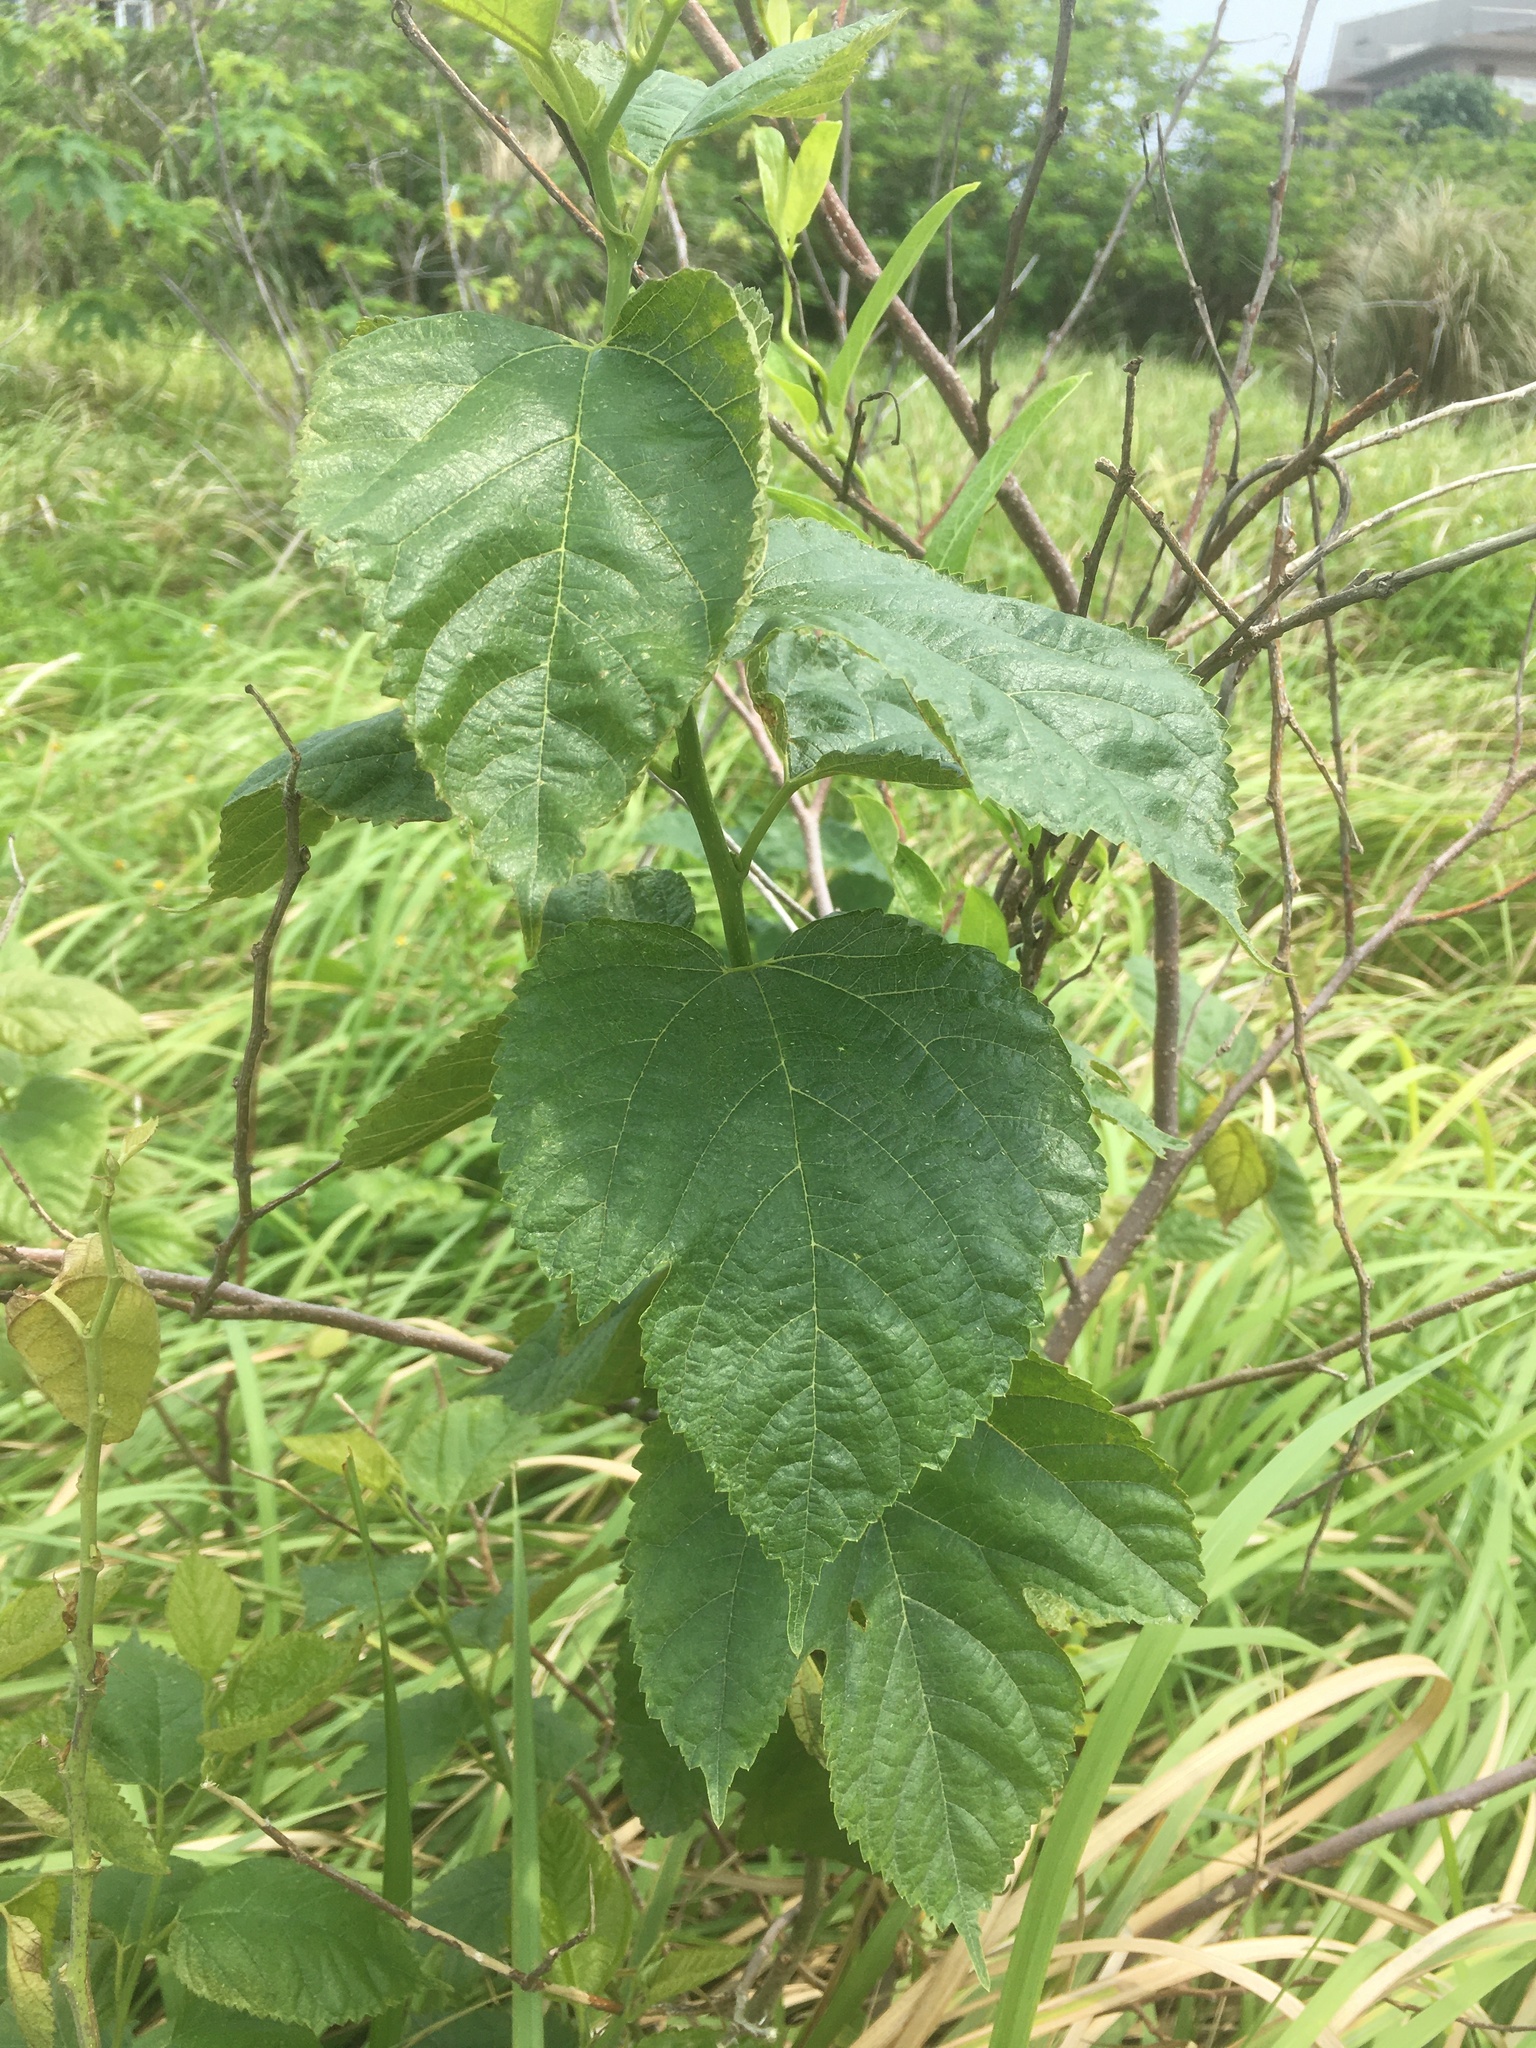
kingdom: Plantae
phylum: Tracheophyta
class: Magnoliopsida
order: Rosales
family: Moraceae
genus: Morus
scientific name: Morus indica
